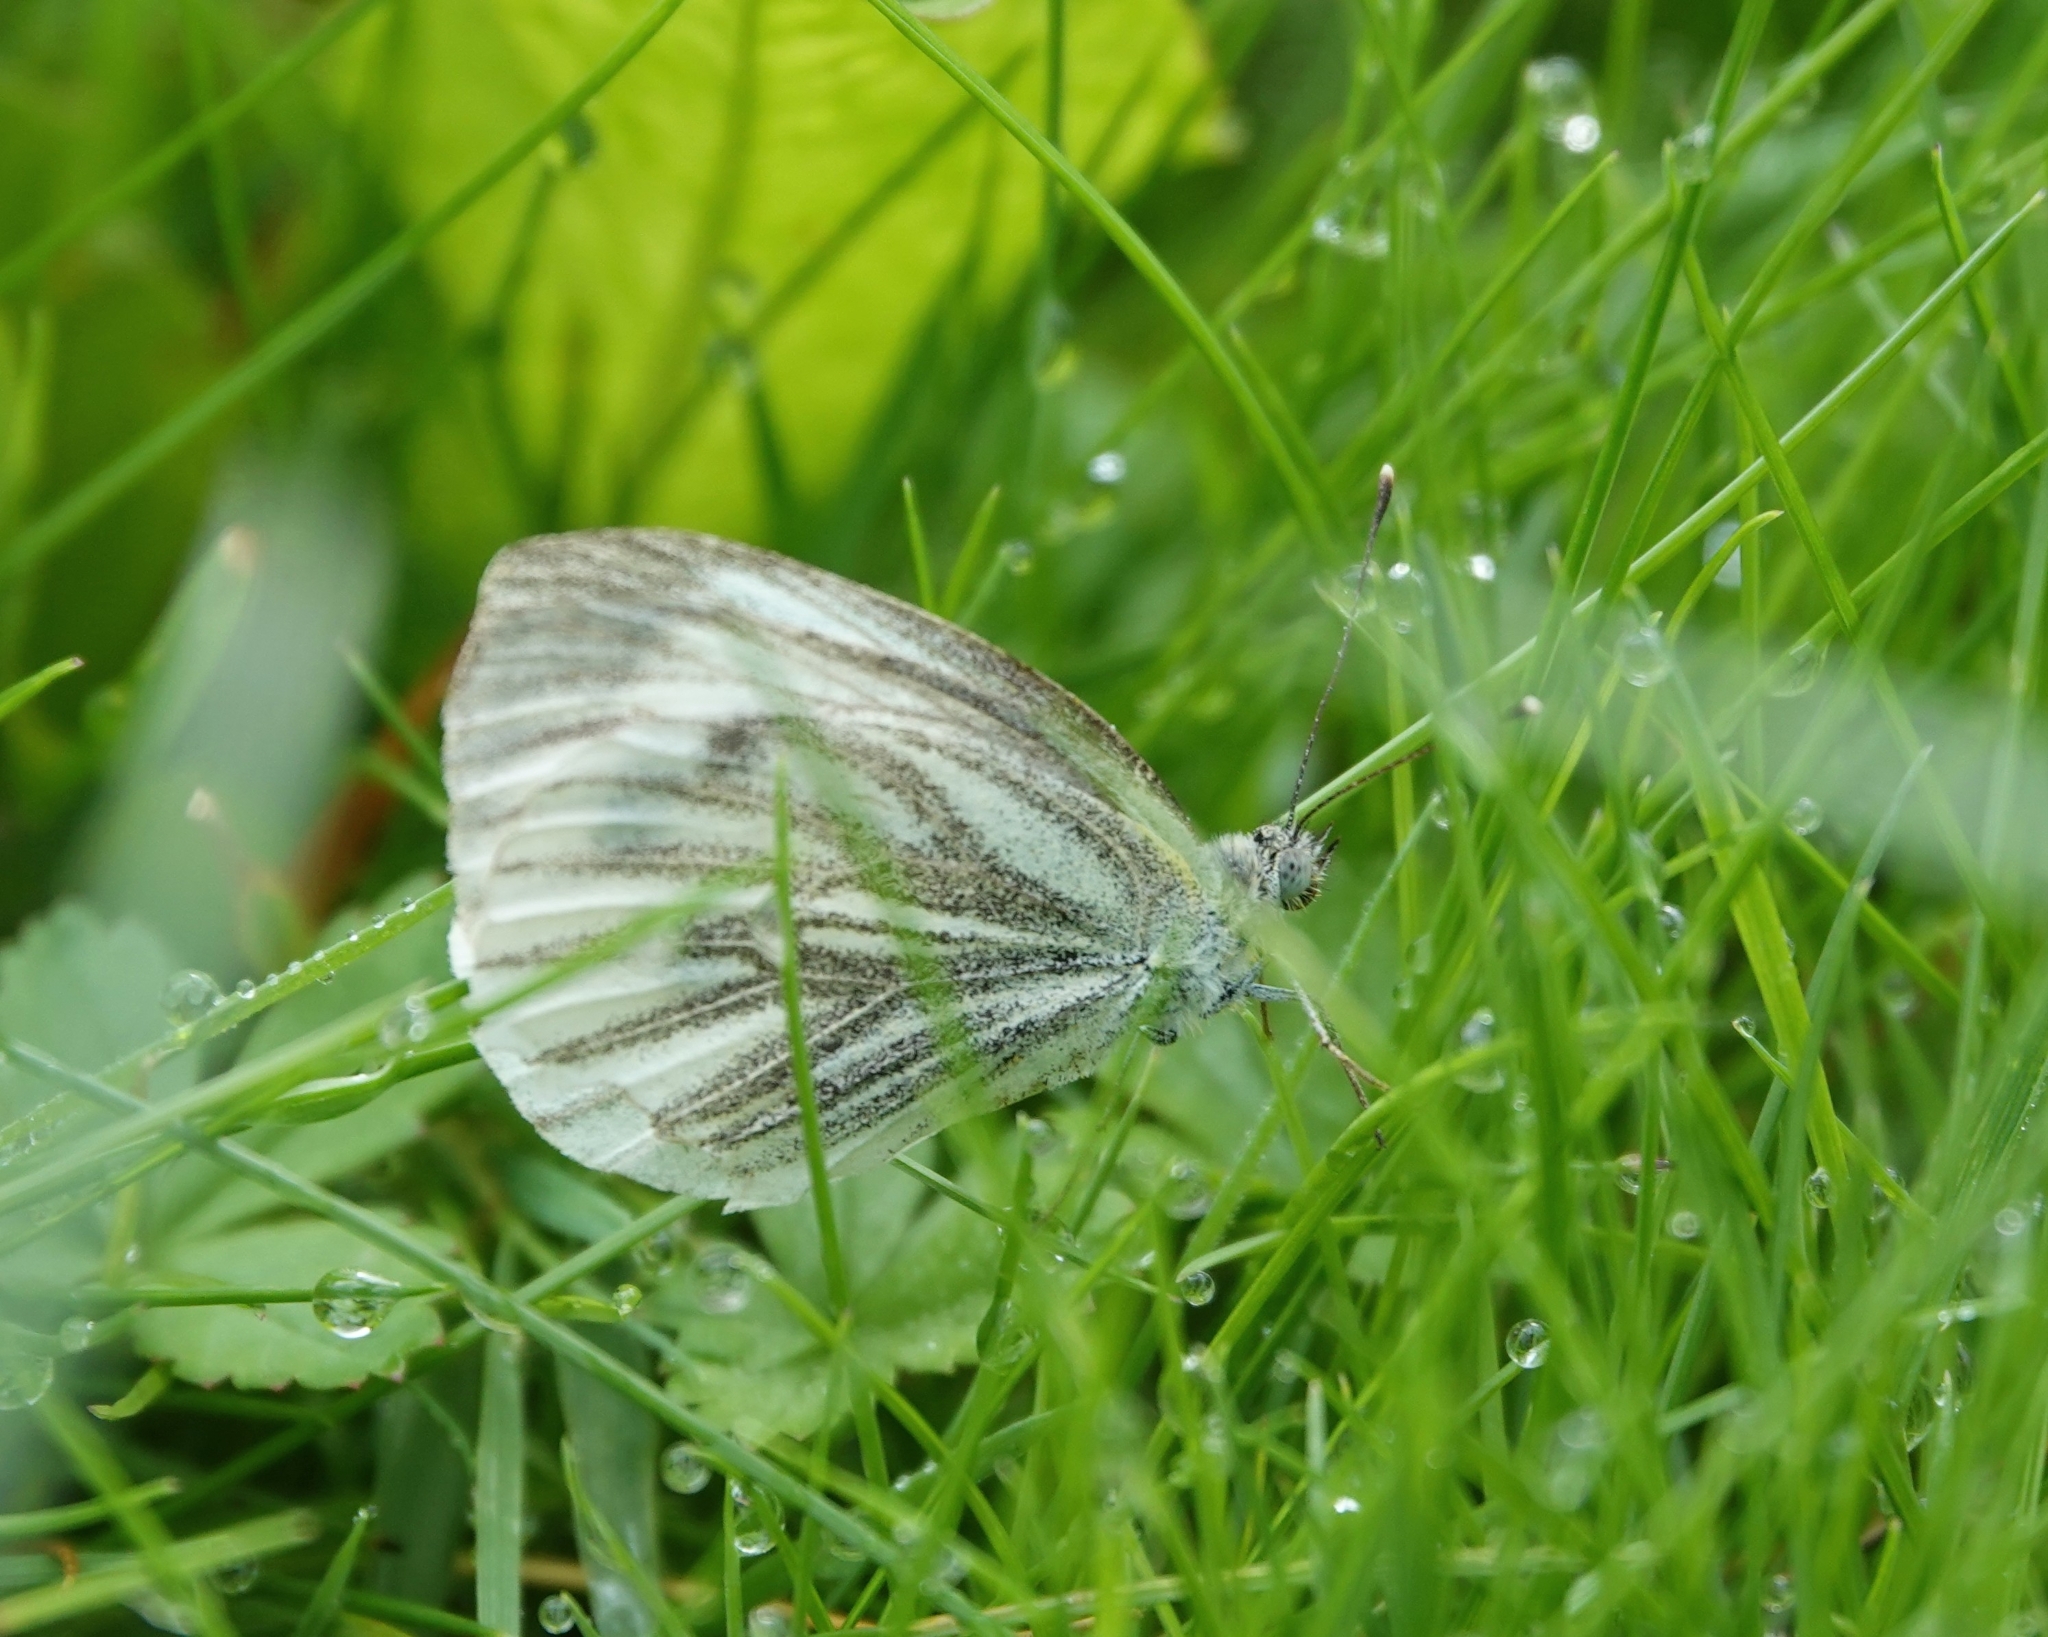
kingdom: Animalia
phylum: Arthropoda
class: Insecta
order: Lepidoptera
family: Pieridae
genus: Pieris
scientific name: Pieris napi
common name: Green-veined white
